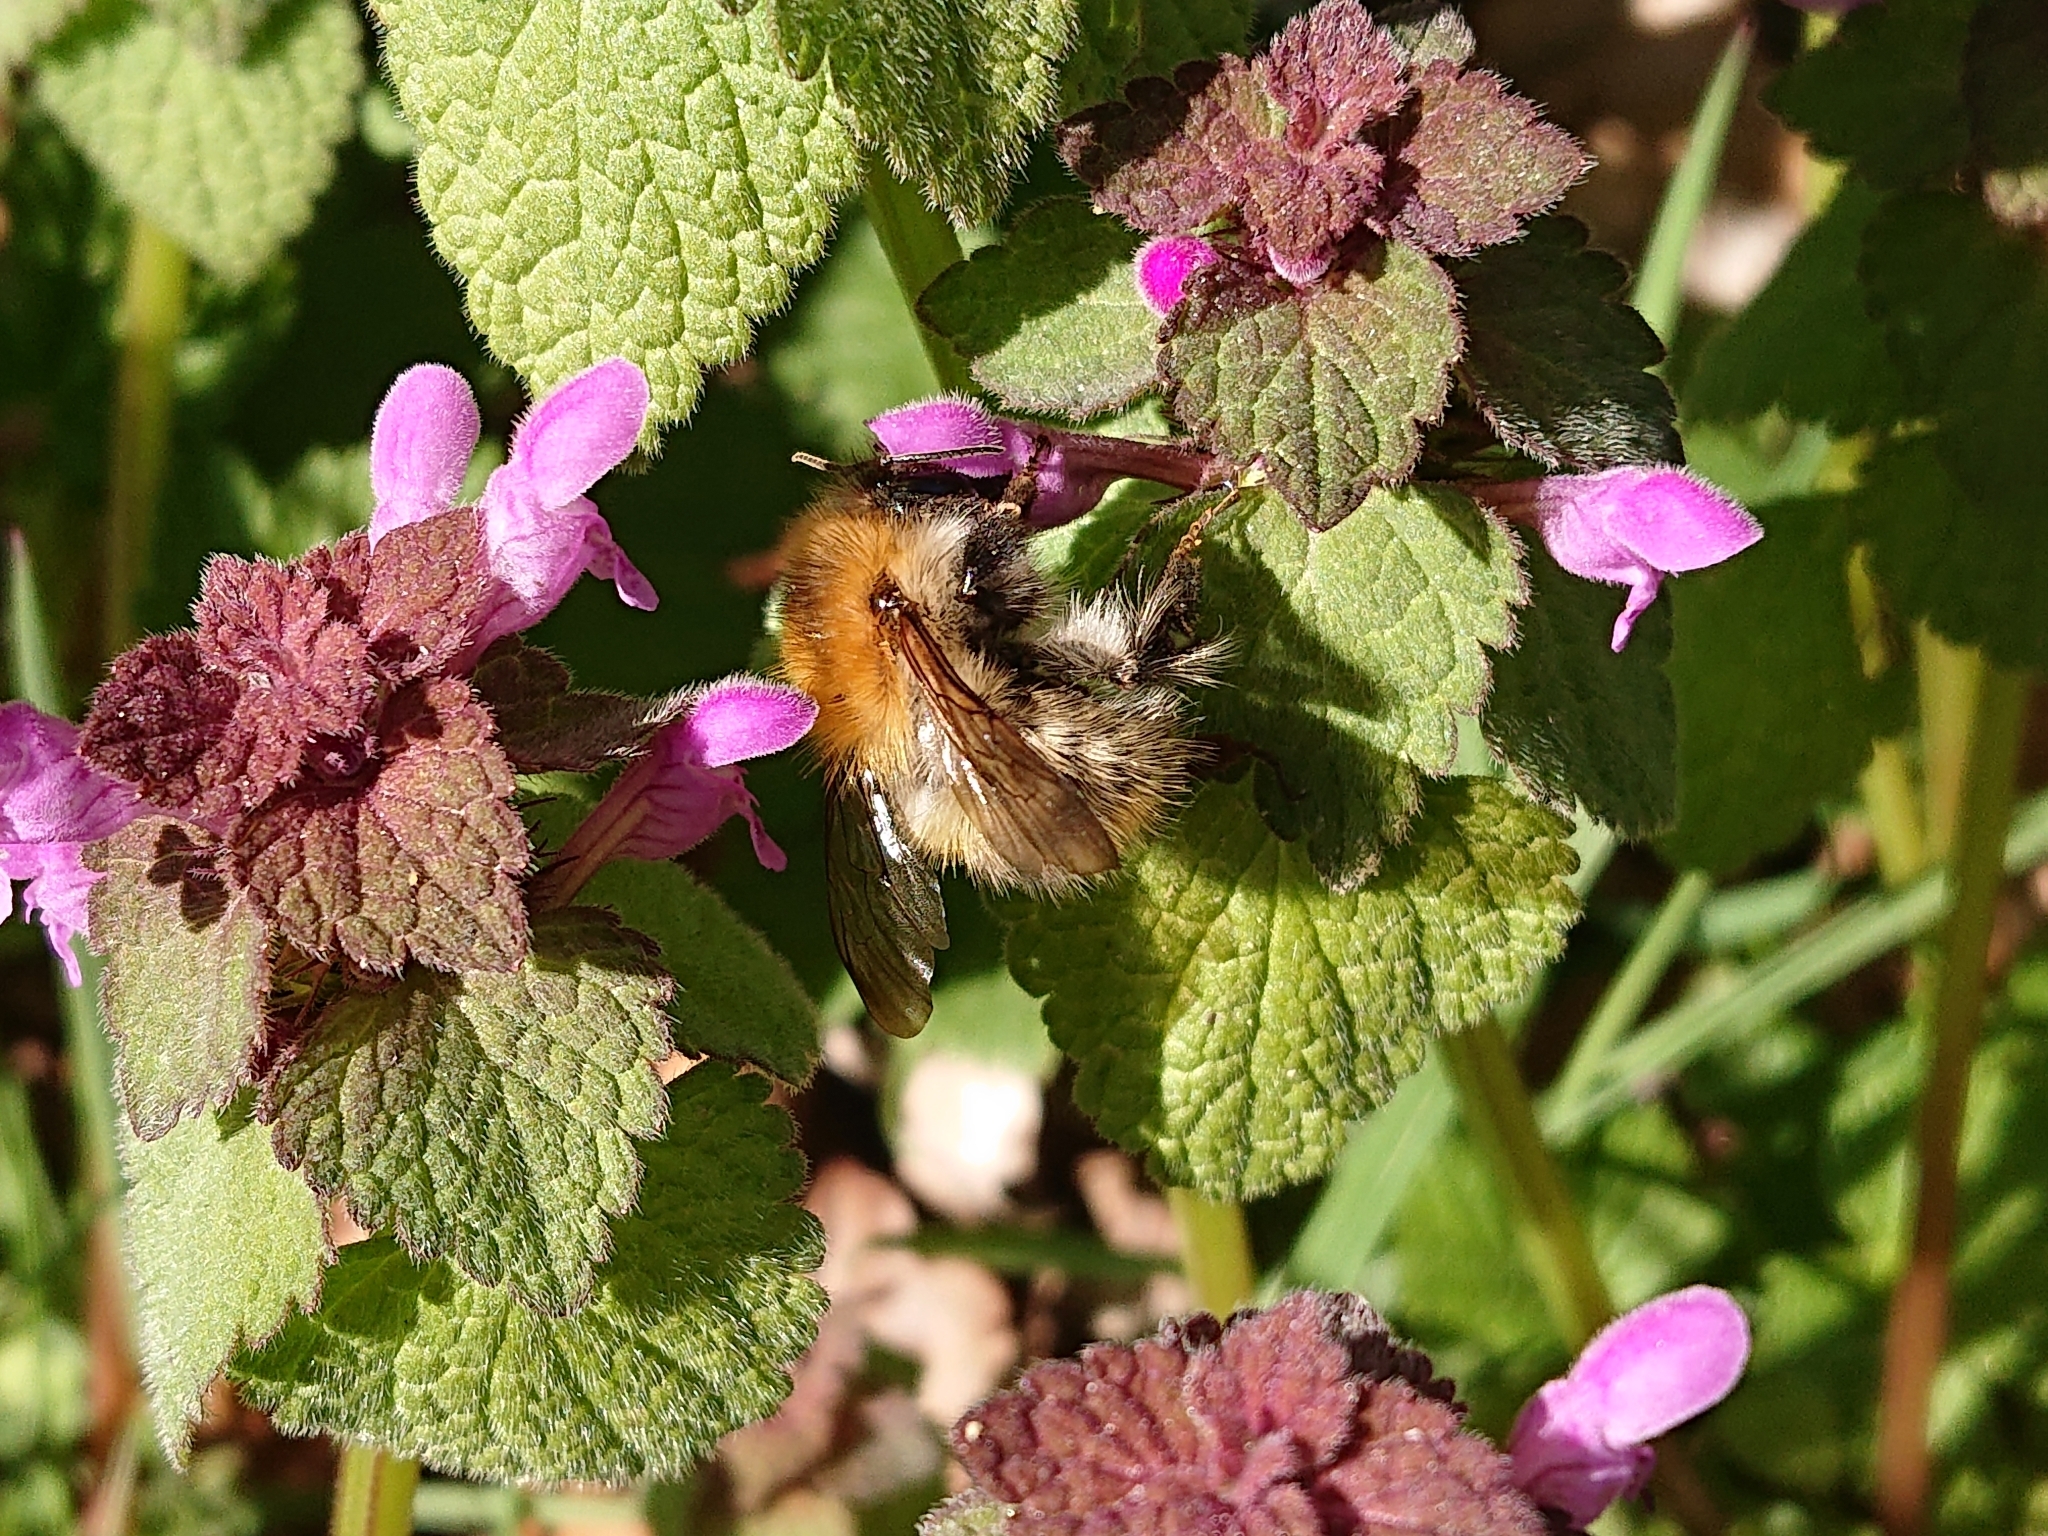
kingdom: Animalia
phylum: Arthropoda
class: Insecta
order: Hymenoptera
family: Apidae
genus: Bombus
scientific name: Bombus pascuorum
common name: Common carder bee
